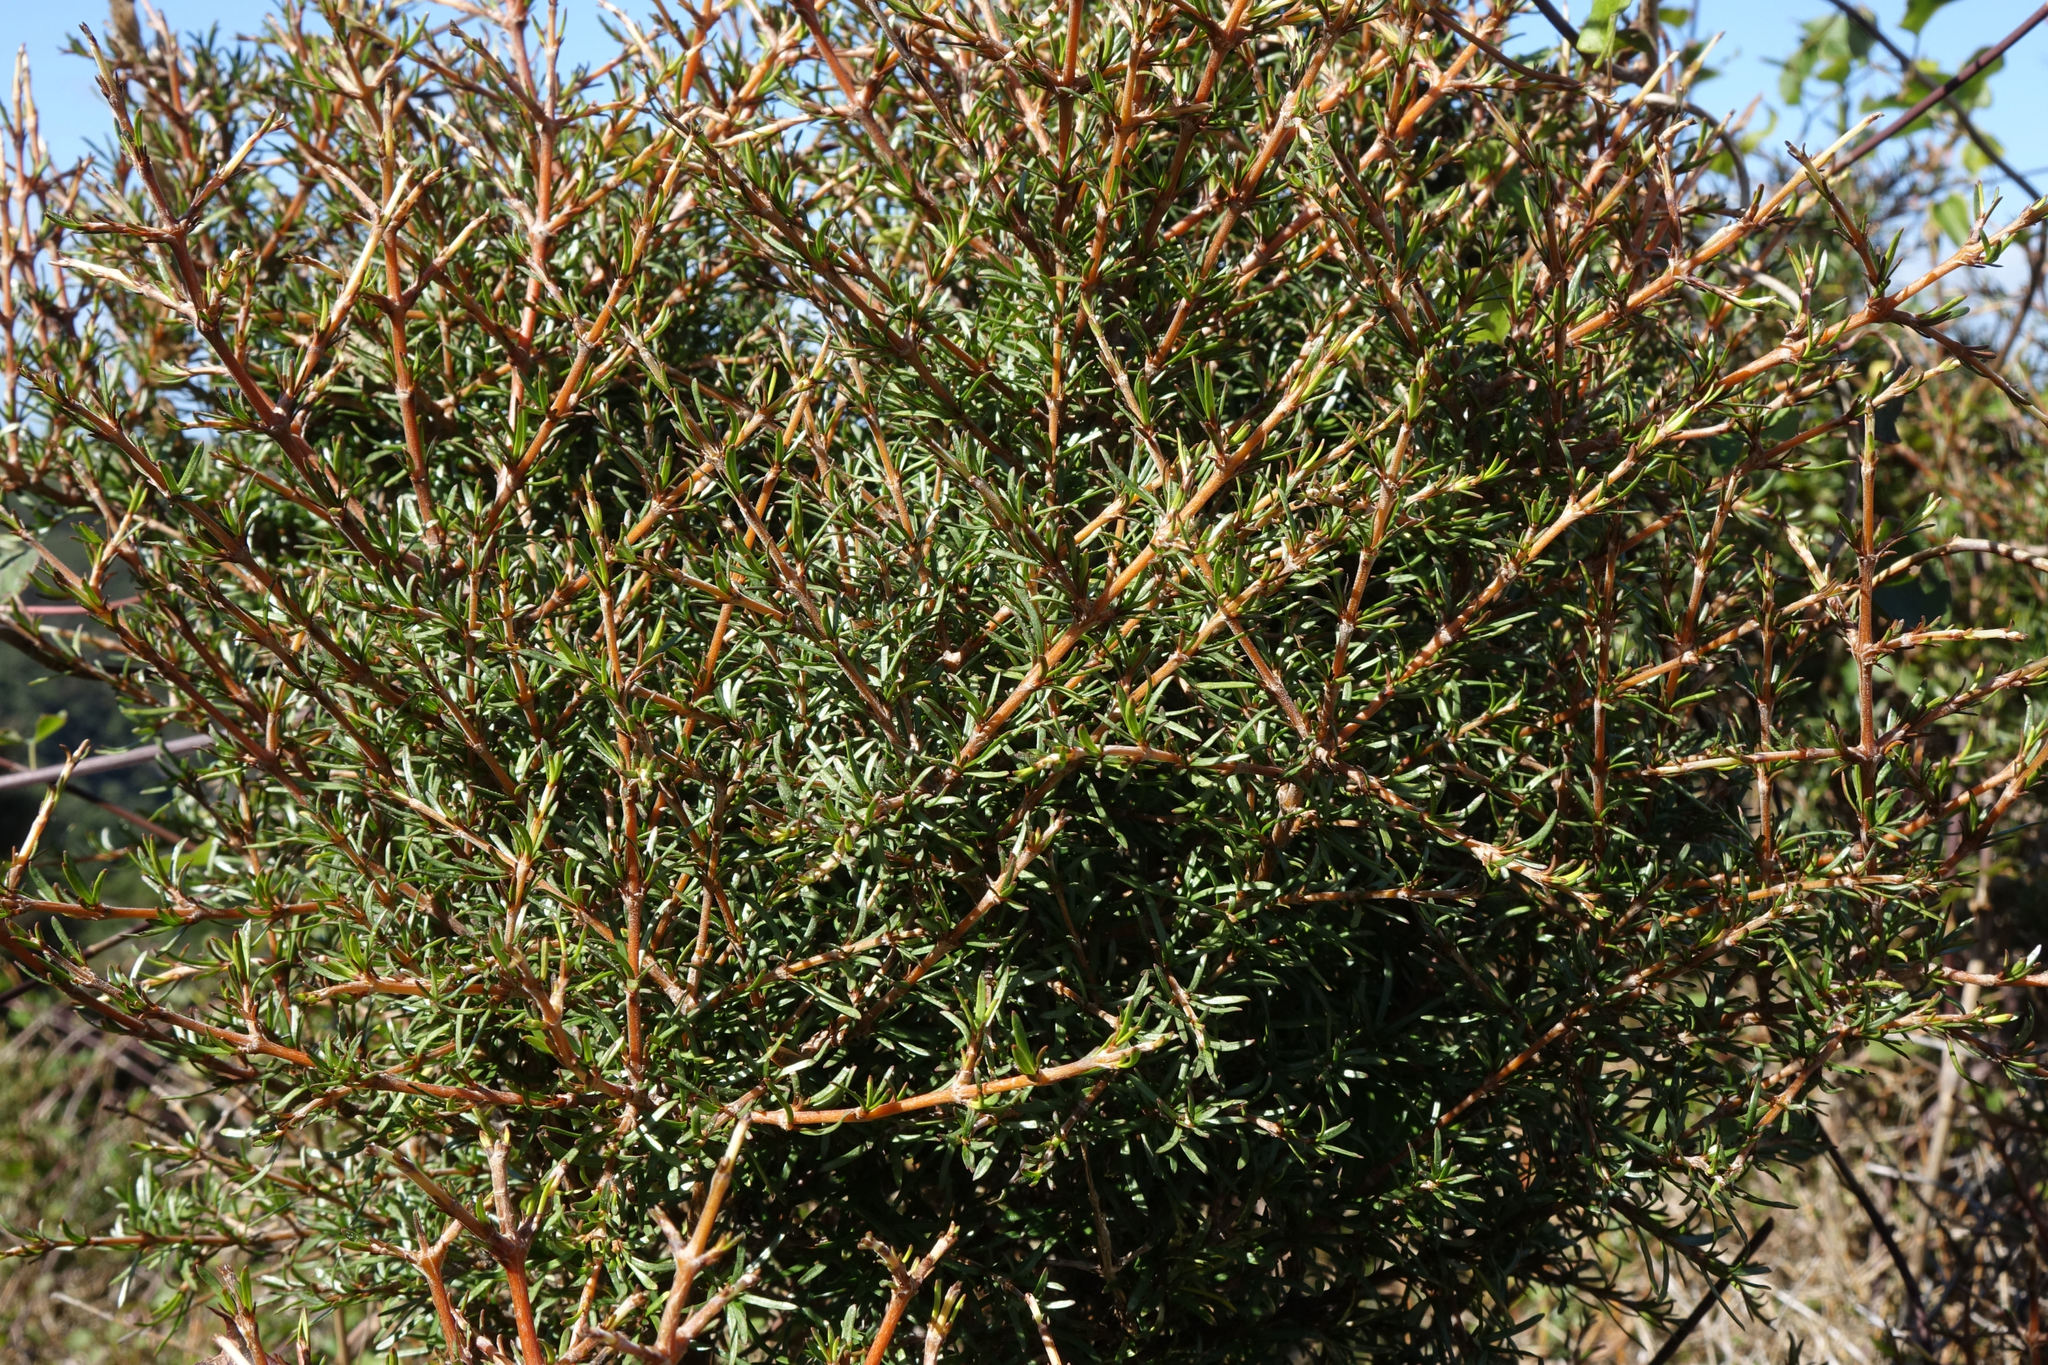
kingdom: Plantae
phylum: Tracheophyta
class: Magnoliopsida
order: Gentianales
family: Rubiaceae
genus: Coprosma
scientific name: Coprosma rugosa
